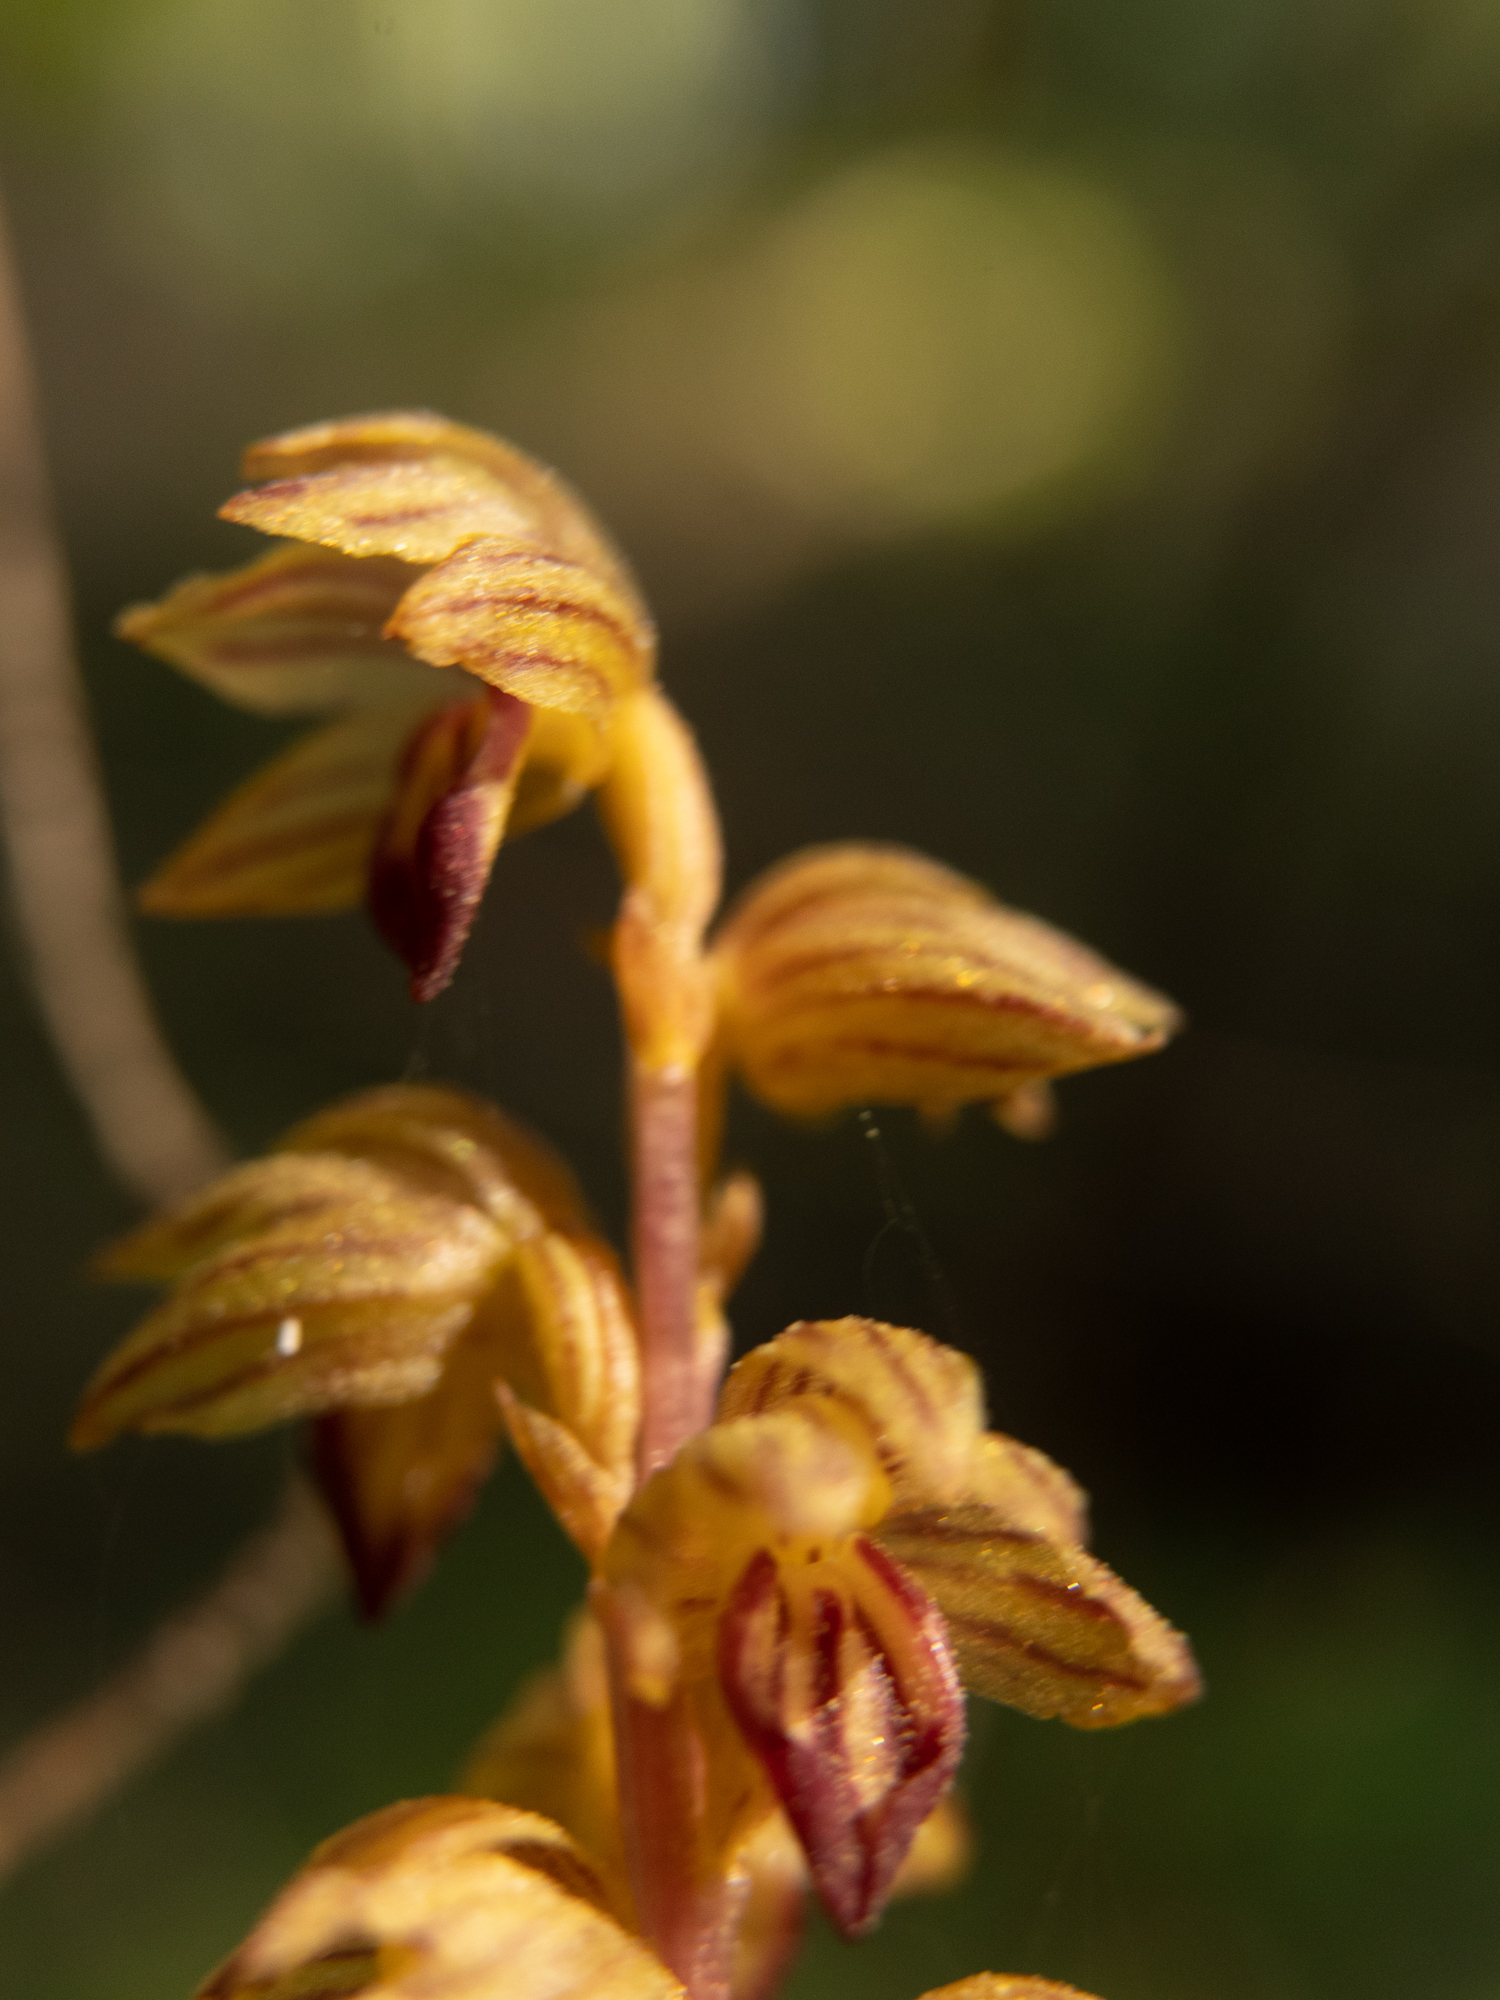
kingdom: Plantae
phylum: Tracheophyta
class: Liliopsida
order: Asparagales
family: Orchidaceae
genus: Corallorhiza
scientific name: Corallorhiza striata
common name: Hooded coralroot
